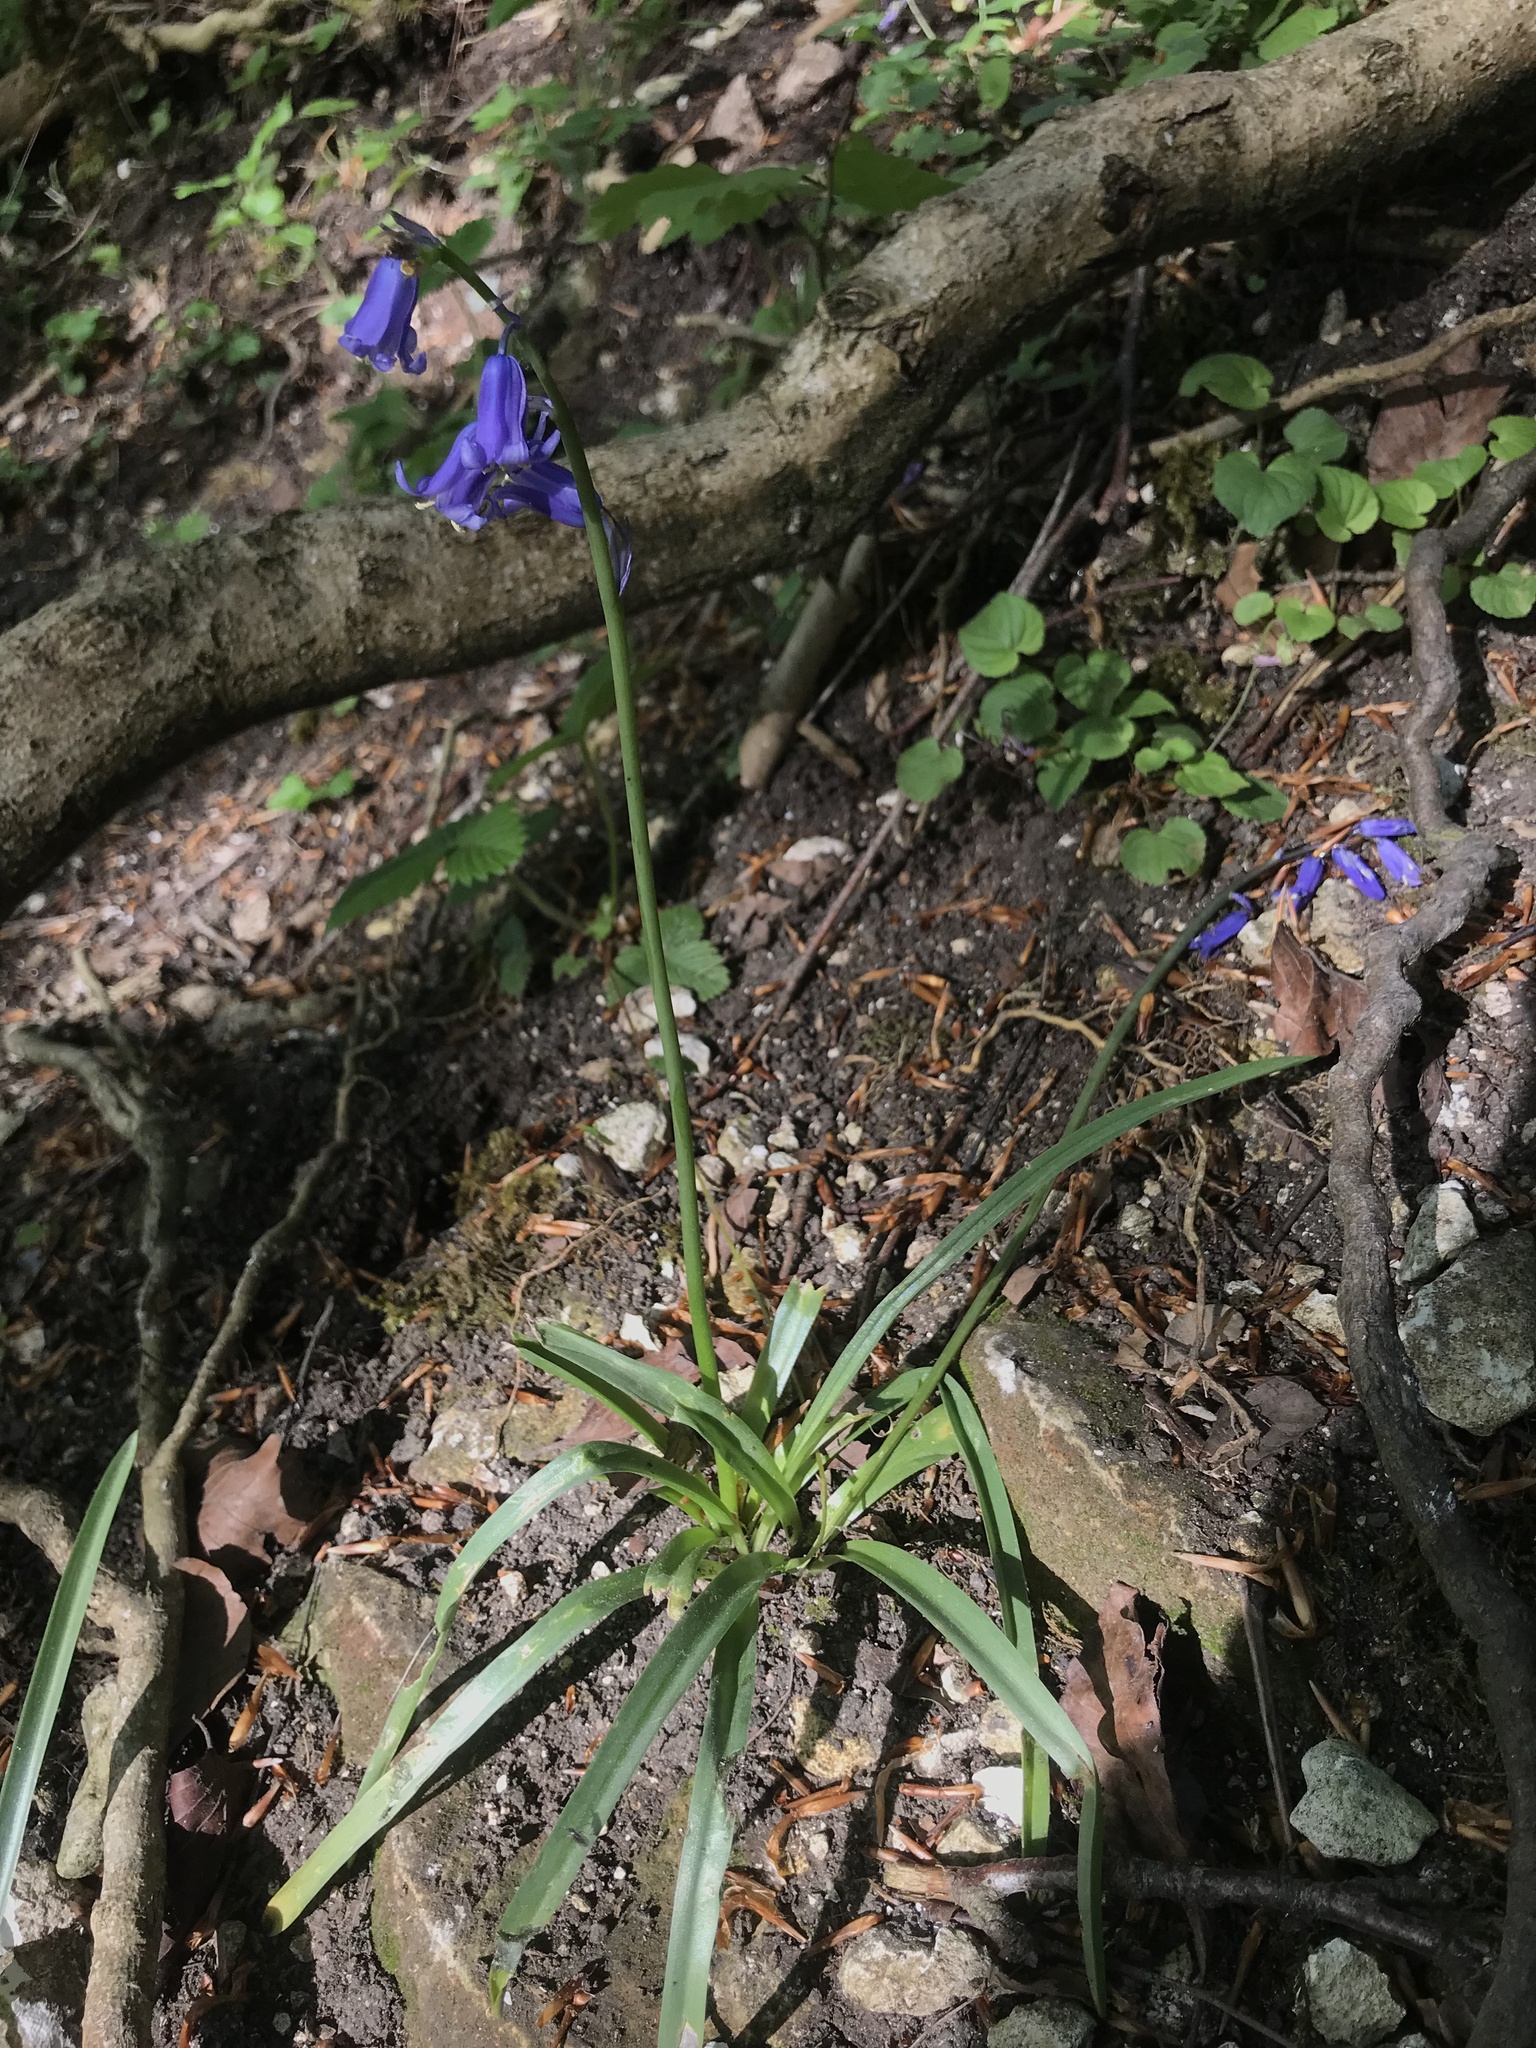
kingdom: Plantae
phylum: Tracheophyta
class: Liliopsida
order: Asparagales
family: Asparagaceae
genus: Hyacinthoides
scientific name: Hyacinthoides non-scripta
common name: Bluebell
